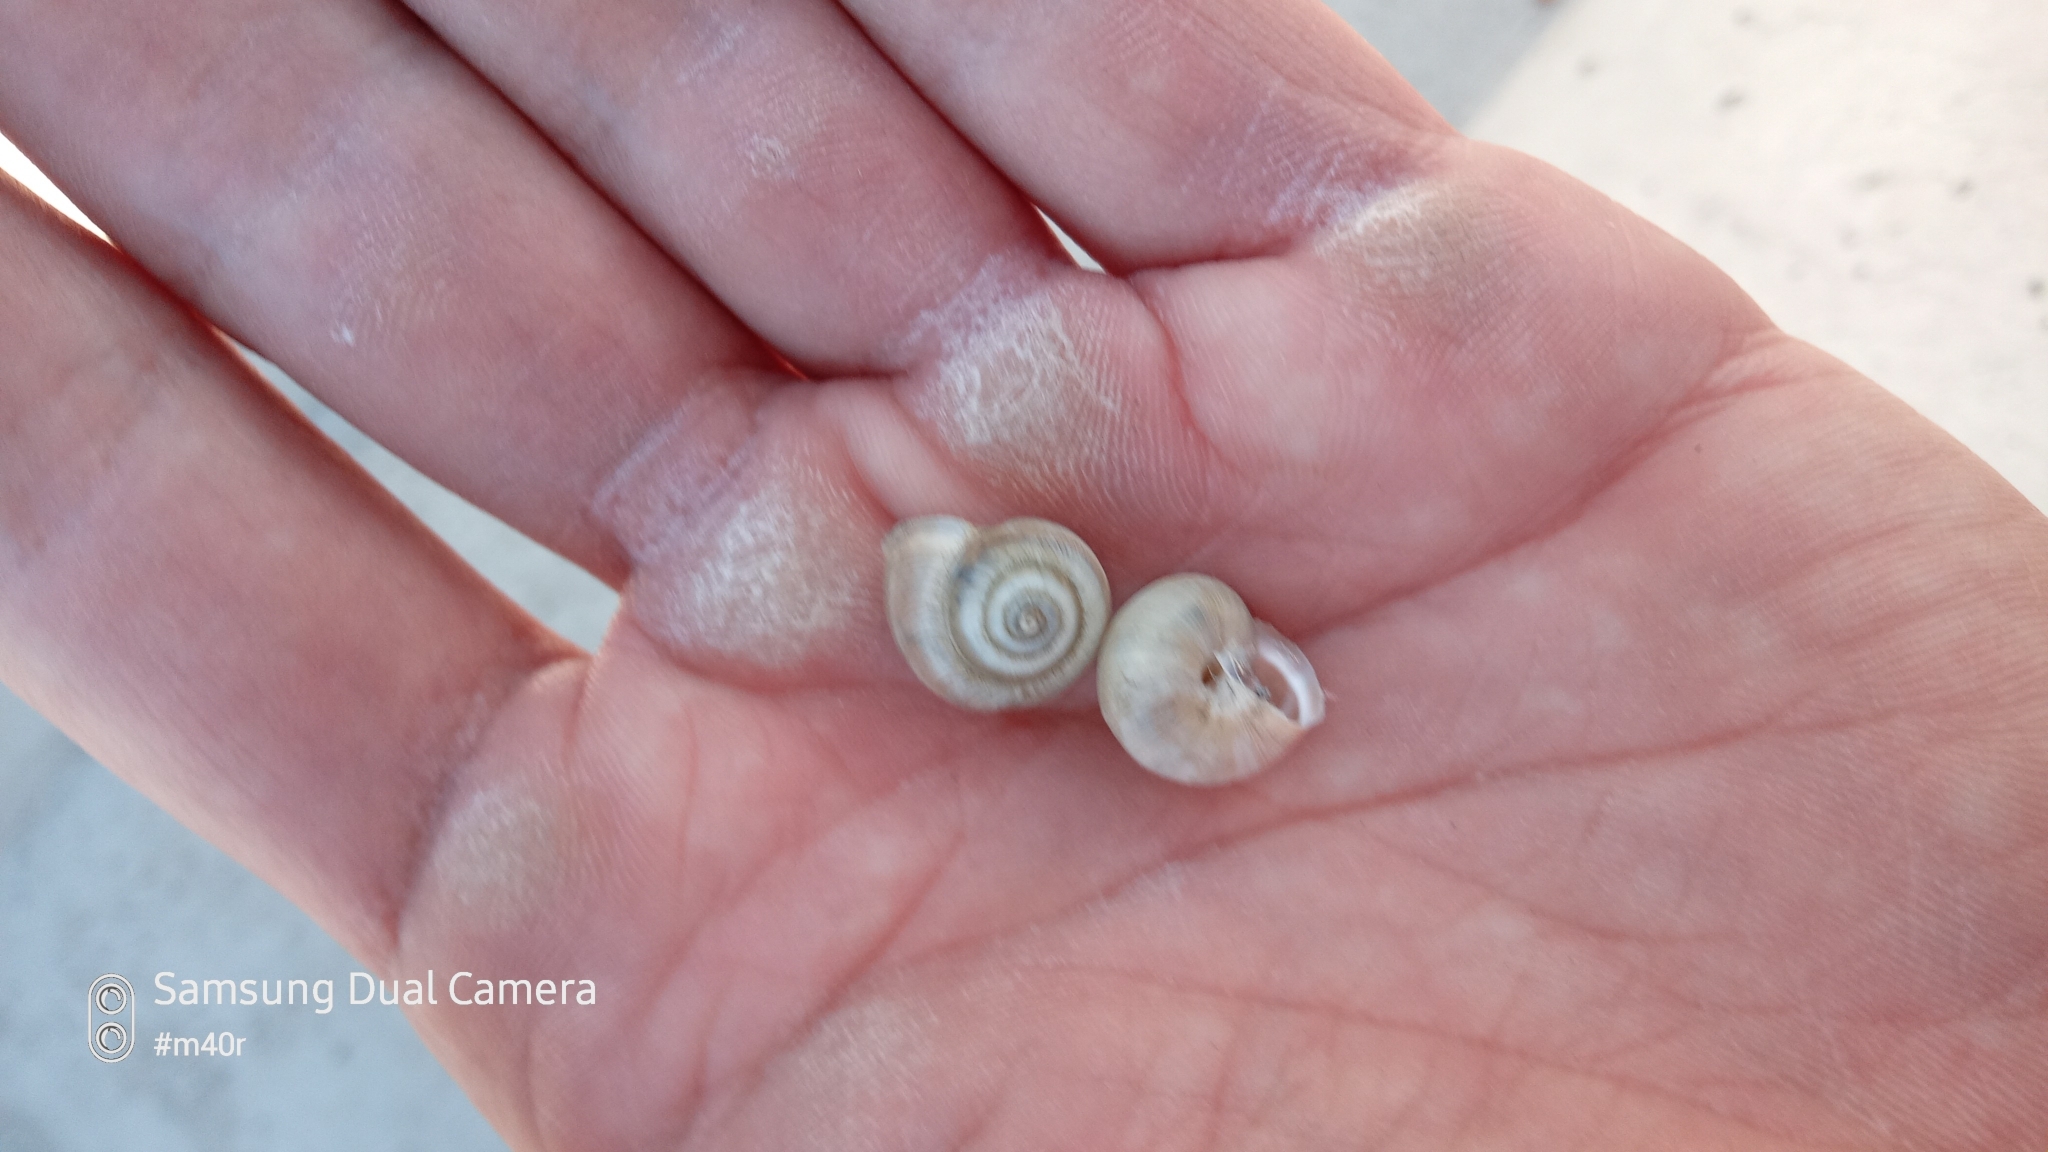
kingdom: Animalia
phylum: Mollusca
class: Gastropoda
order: Stylommatophora
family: Hygromiidae
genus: Harmozica
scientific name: Harmozica ravergiensis
